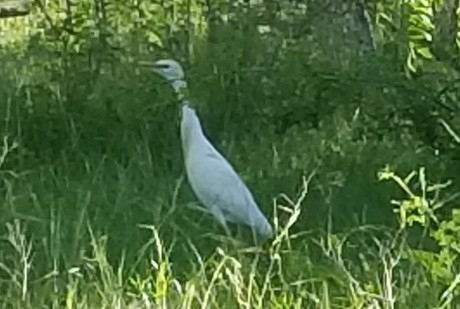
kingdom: Animalia
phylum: Chordata
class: Aves
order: Pelecaniformes
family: Ardeidae
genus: Bubulcus
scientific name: Bubulcus ibis
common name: Cattle egret
